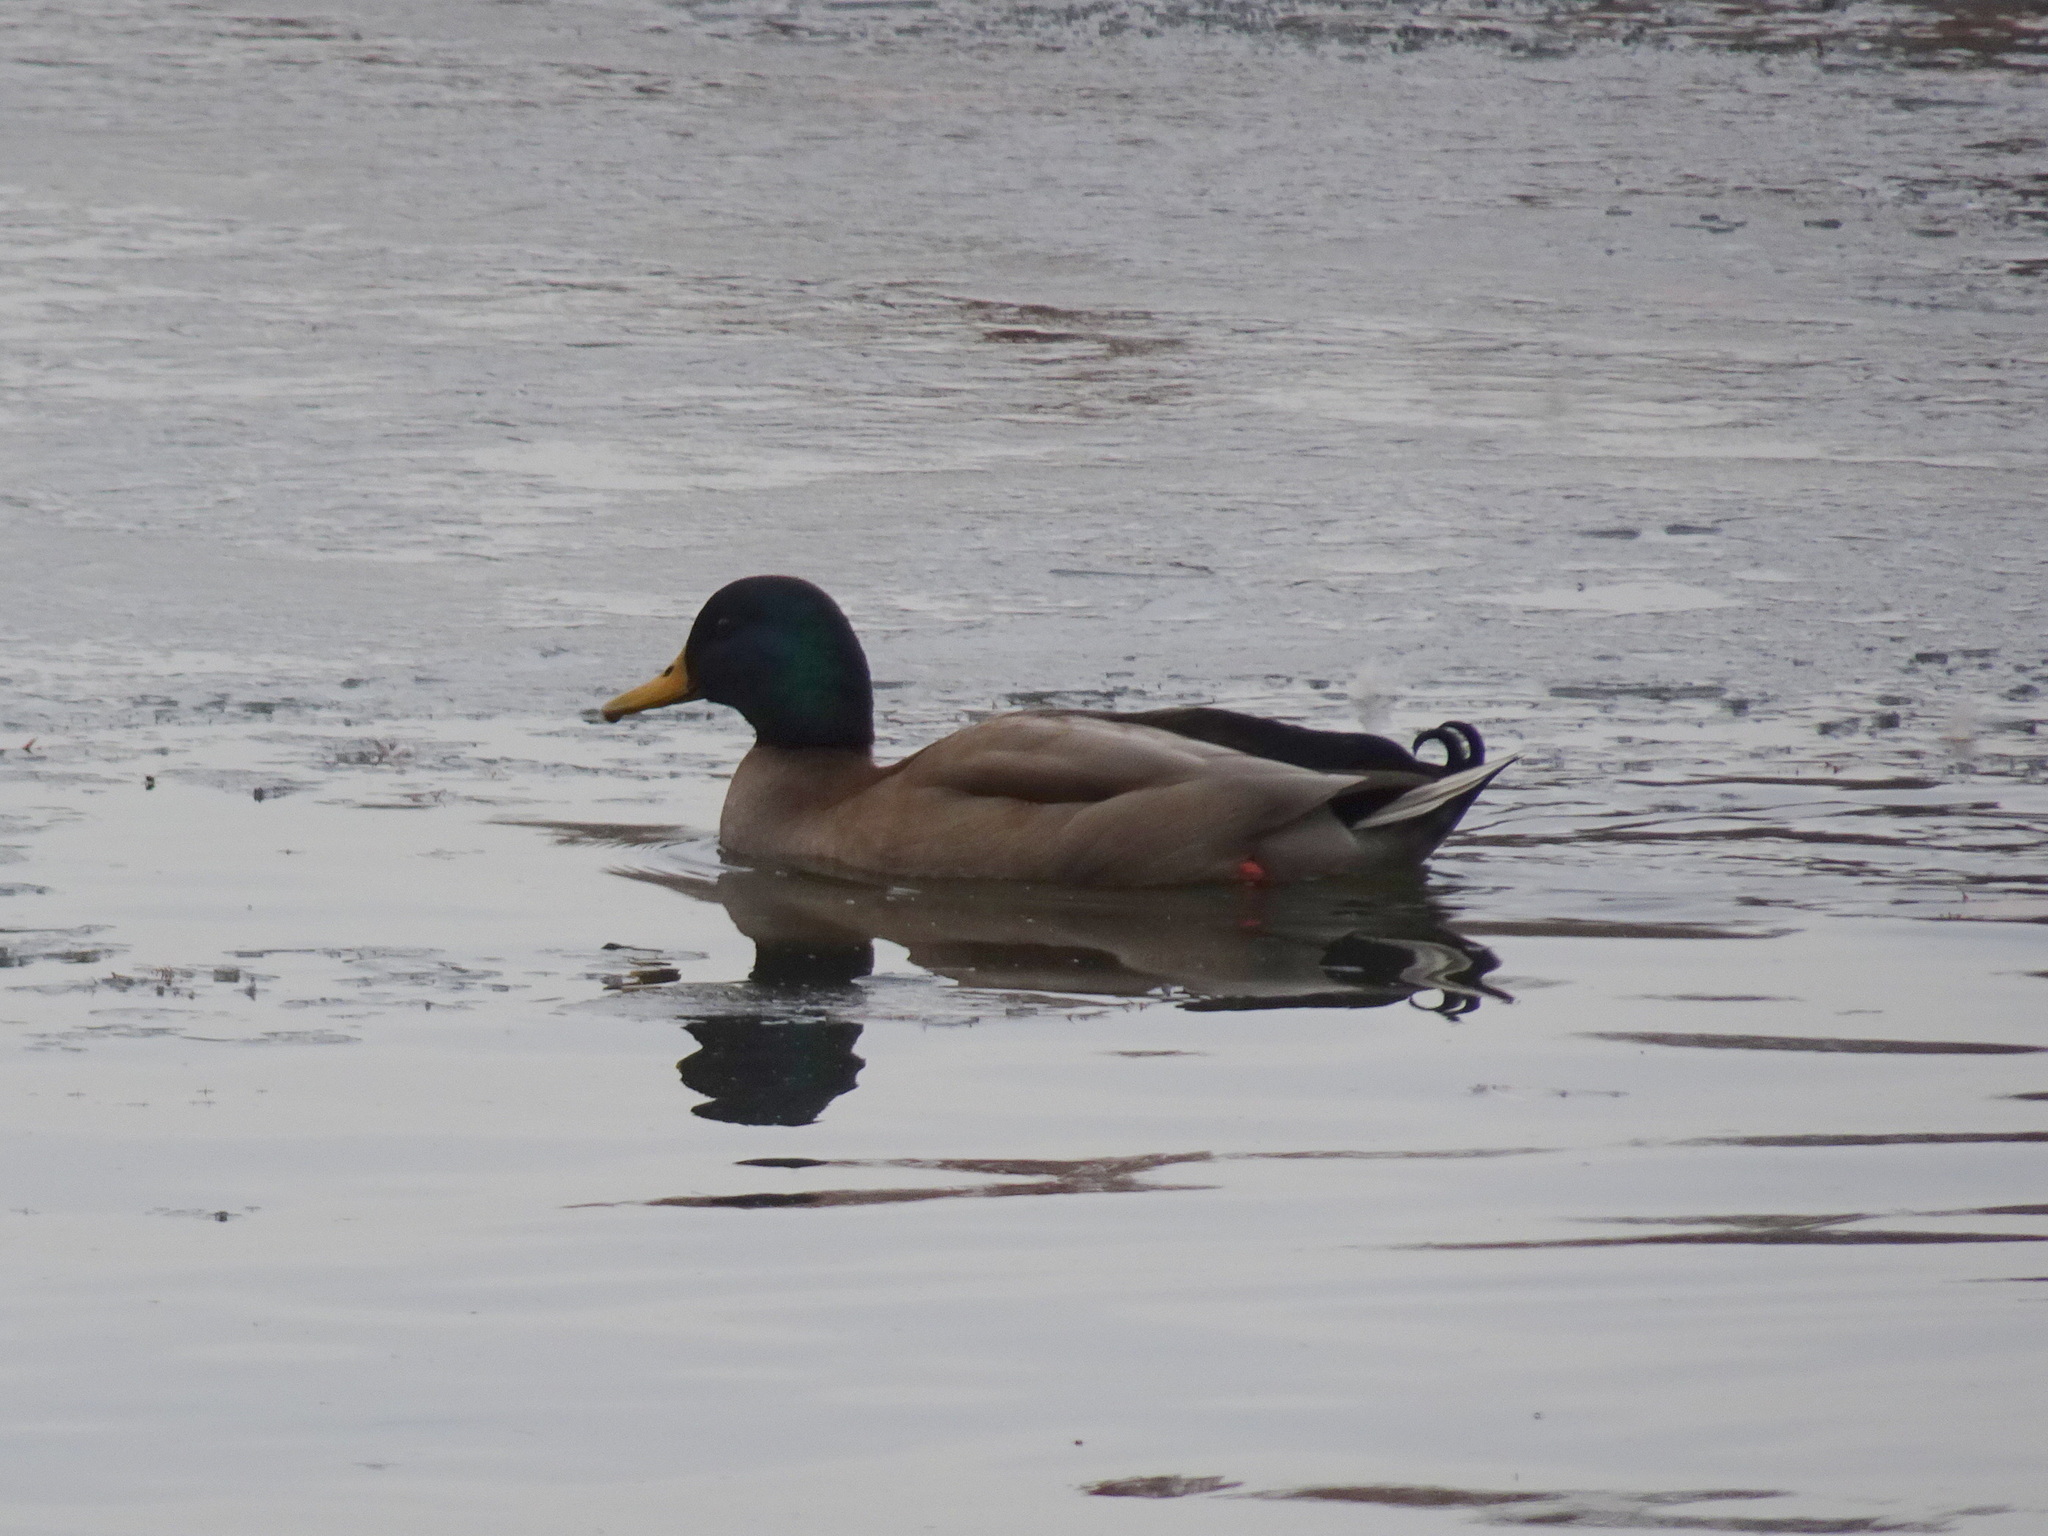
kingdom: Animalia
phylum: Chordata
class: Aves
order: Anseriformes
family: Anatidae
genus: Anas
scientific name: Anas platyrhynchos
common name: Mallard
